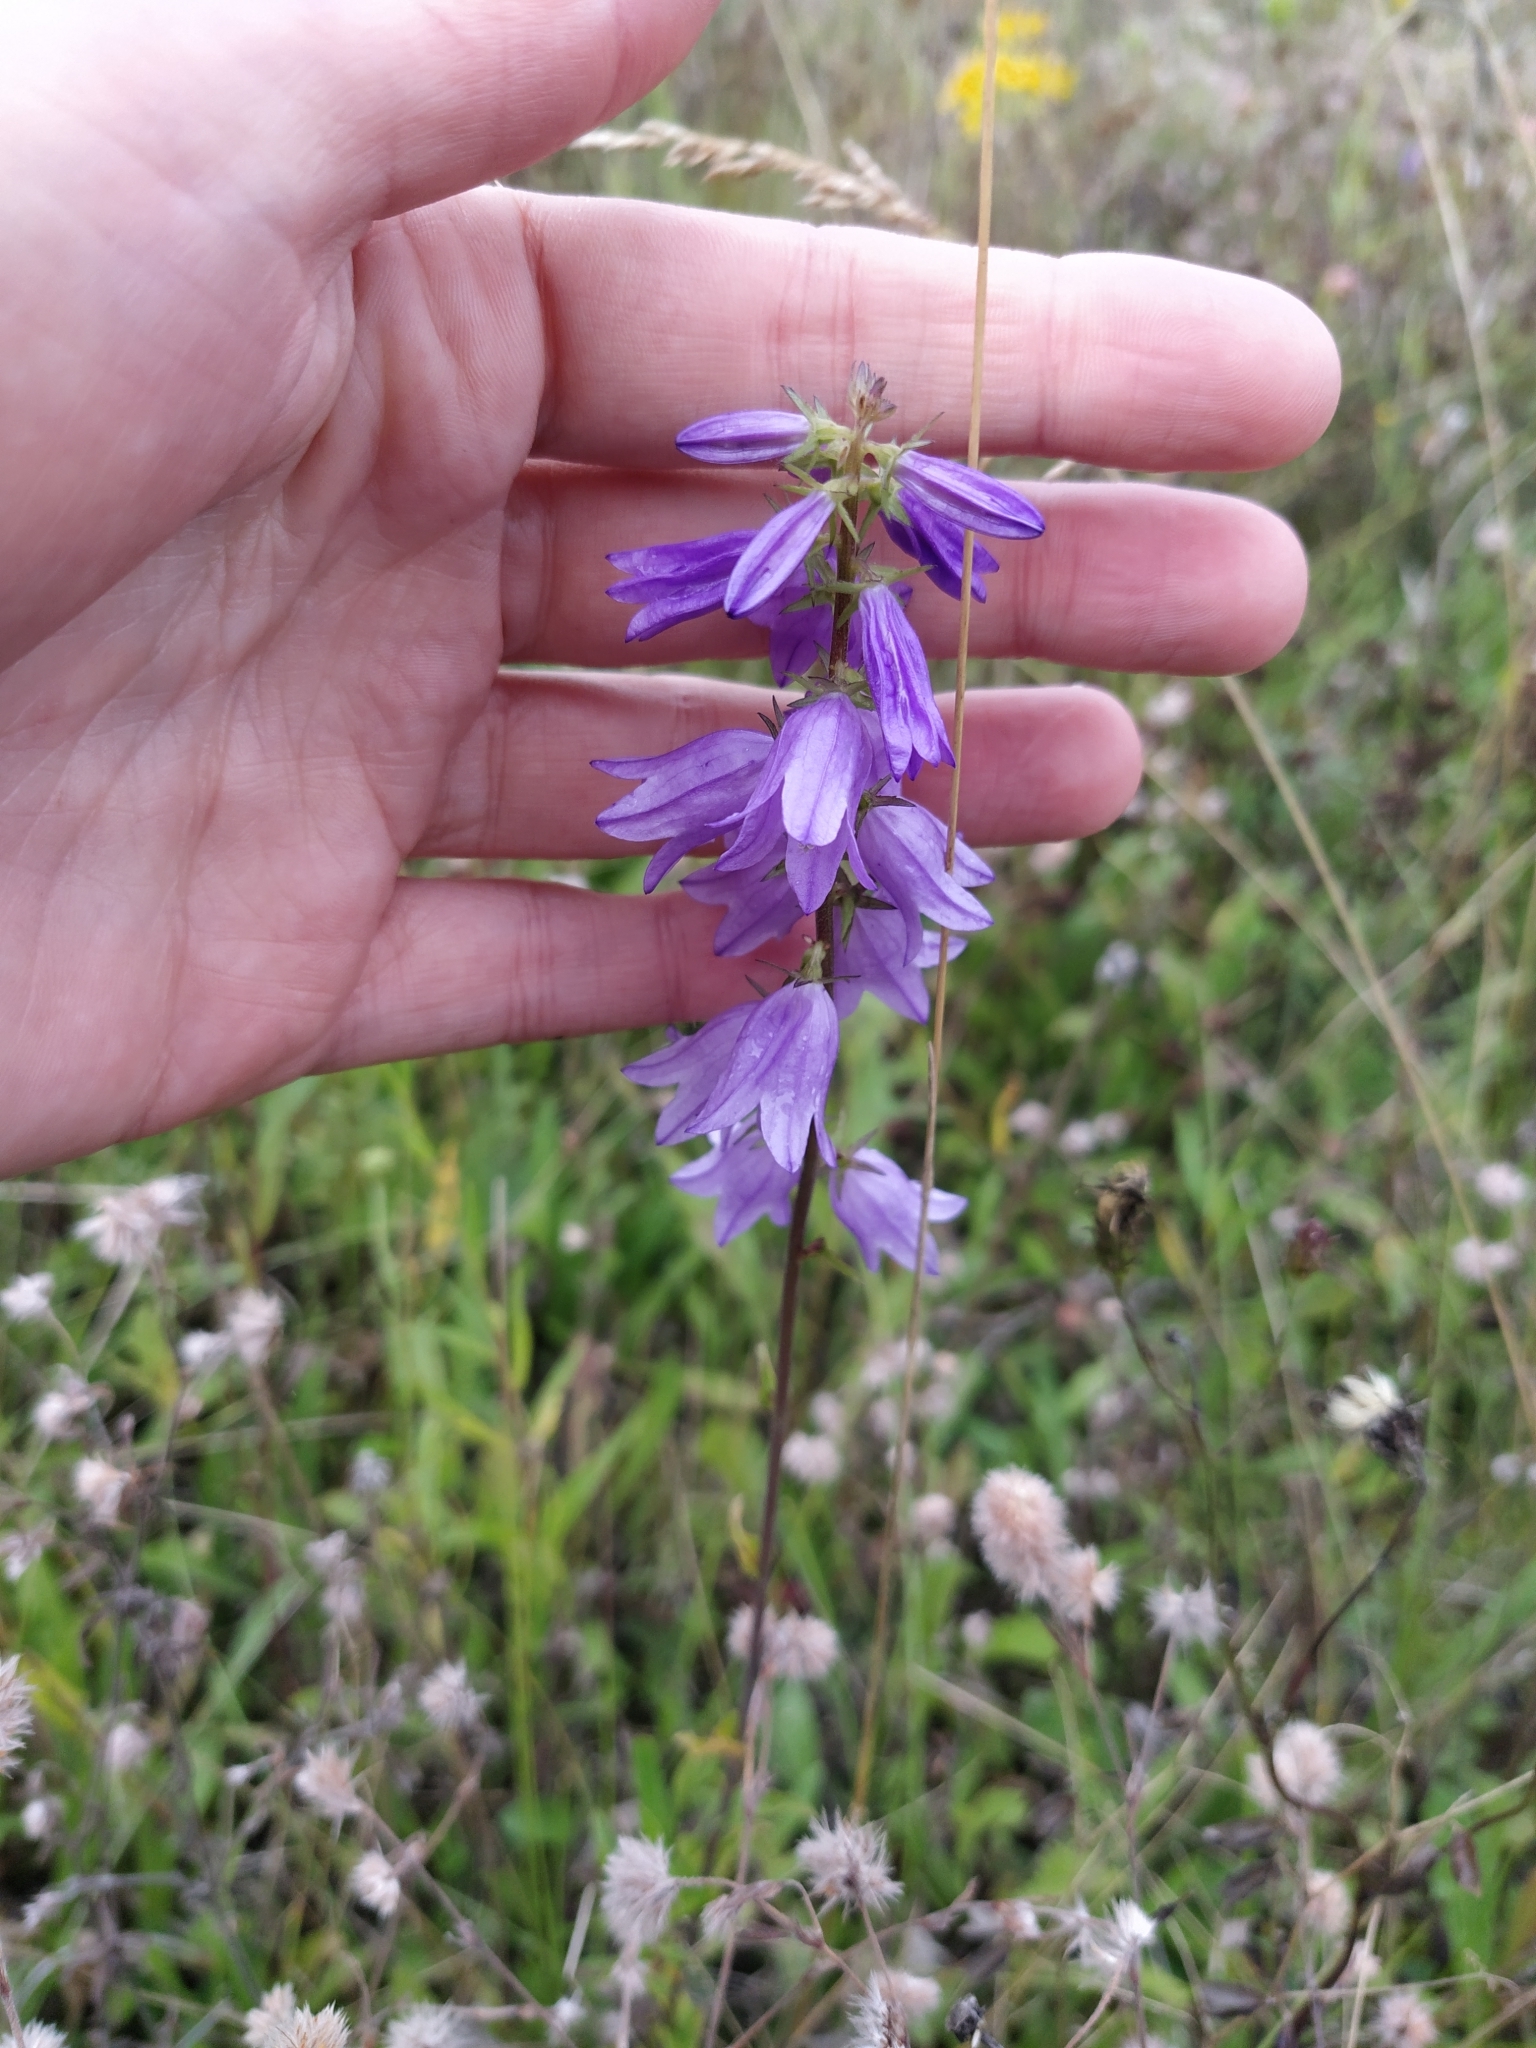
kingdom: Plantae
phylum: Tracheophyta
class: Magnoliopsida
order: Asterales
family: Campanulaceae
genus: Campanula
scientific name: Campanula bononiensis
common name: Pale bellflower
